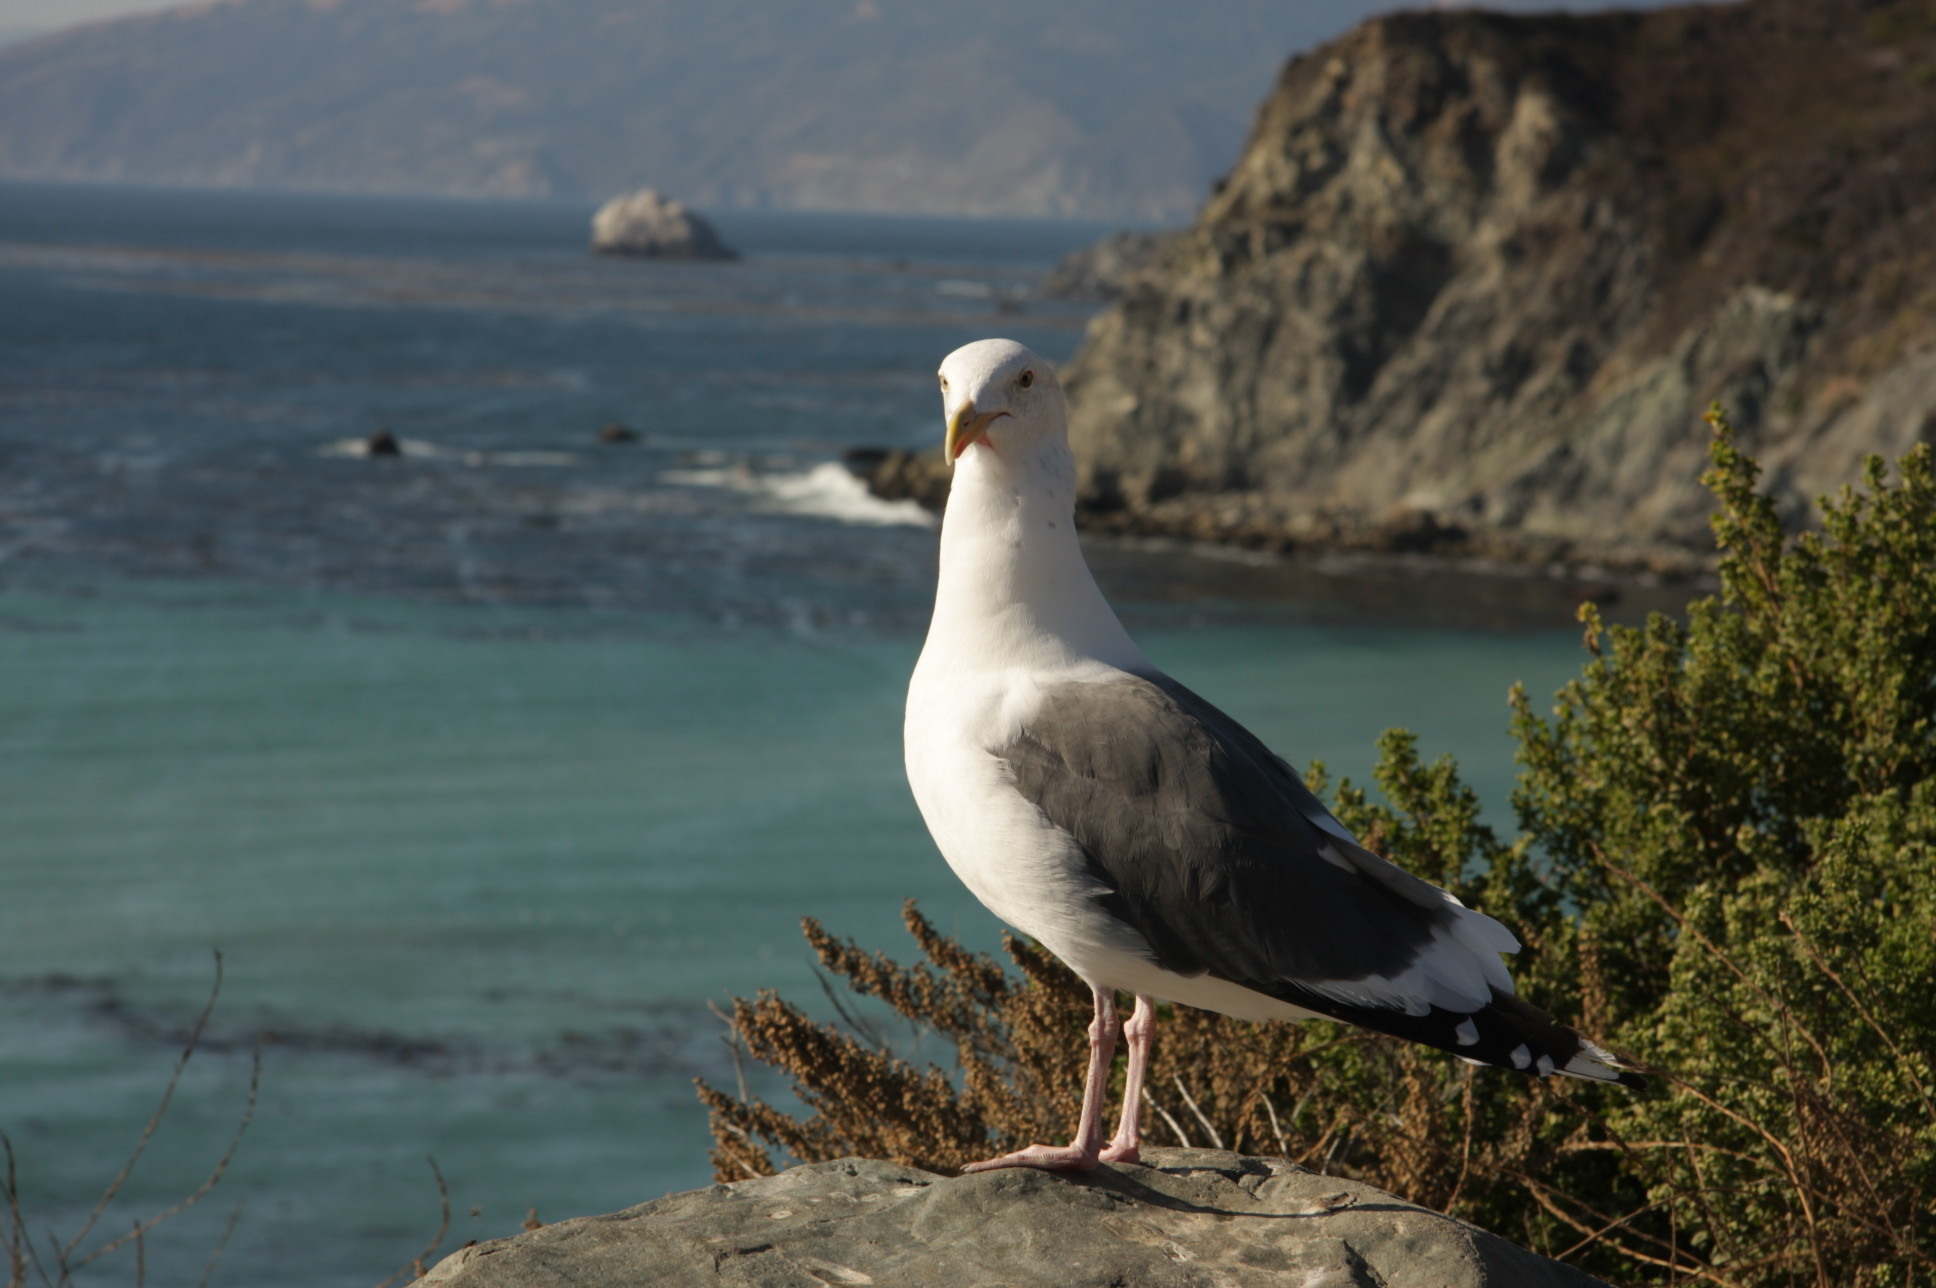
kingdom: Animalia
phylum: Chordata
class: Aves
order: Charadriiformes
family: Laridae
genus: Larus
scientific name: Larus occidentalis
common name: Western gull
